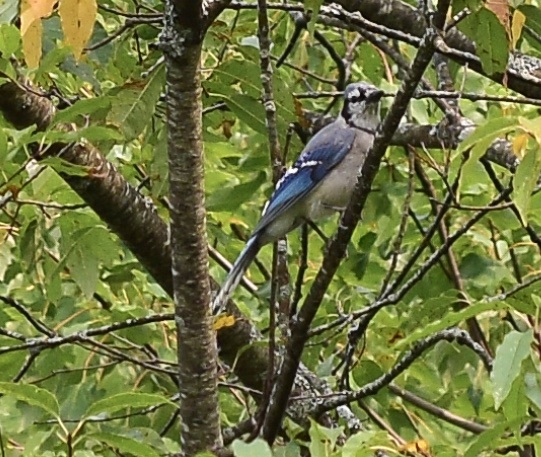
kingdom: Animalia
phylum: Chordata
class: Aves
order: Passeriformes
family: Corvidae
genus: Cyanocitta
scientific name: Cyanocitta cristata
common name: Blue jay
